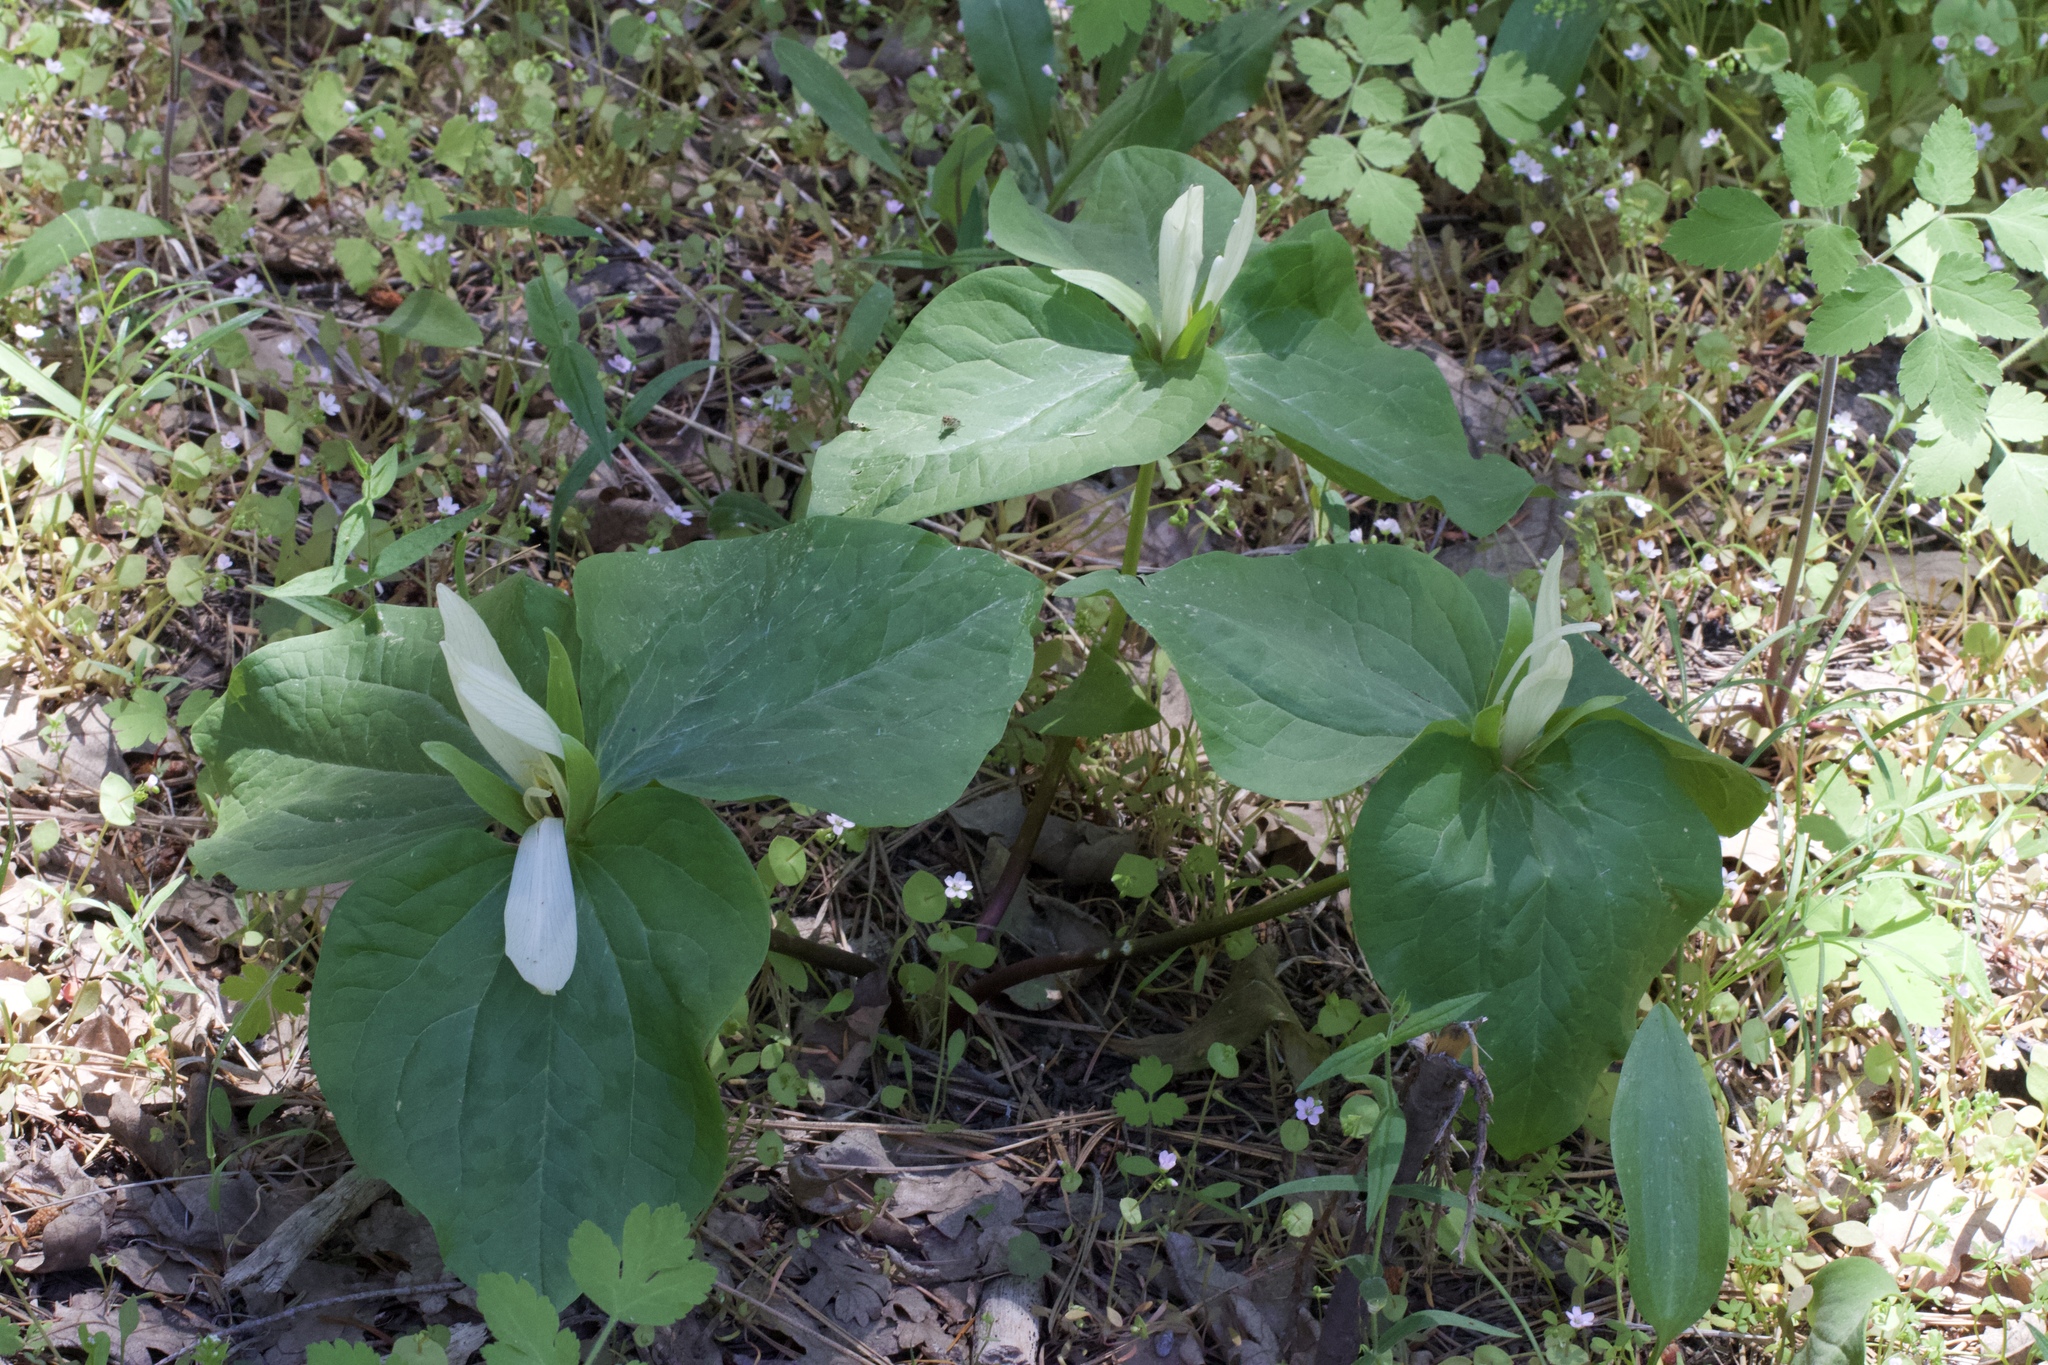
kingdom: Plantae
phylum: Tracheophyta
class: Liliopsida
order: Liliales
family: Melanthiaceae
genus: Trillium
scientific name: Trillium albidum
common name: Freeman's trillium
